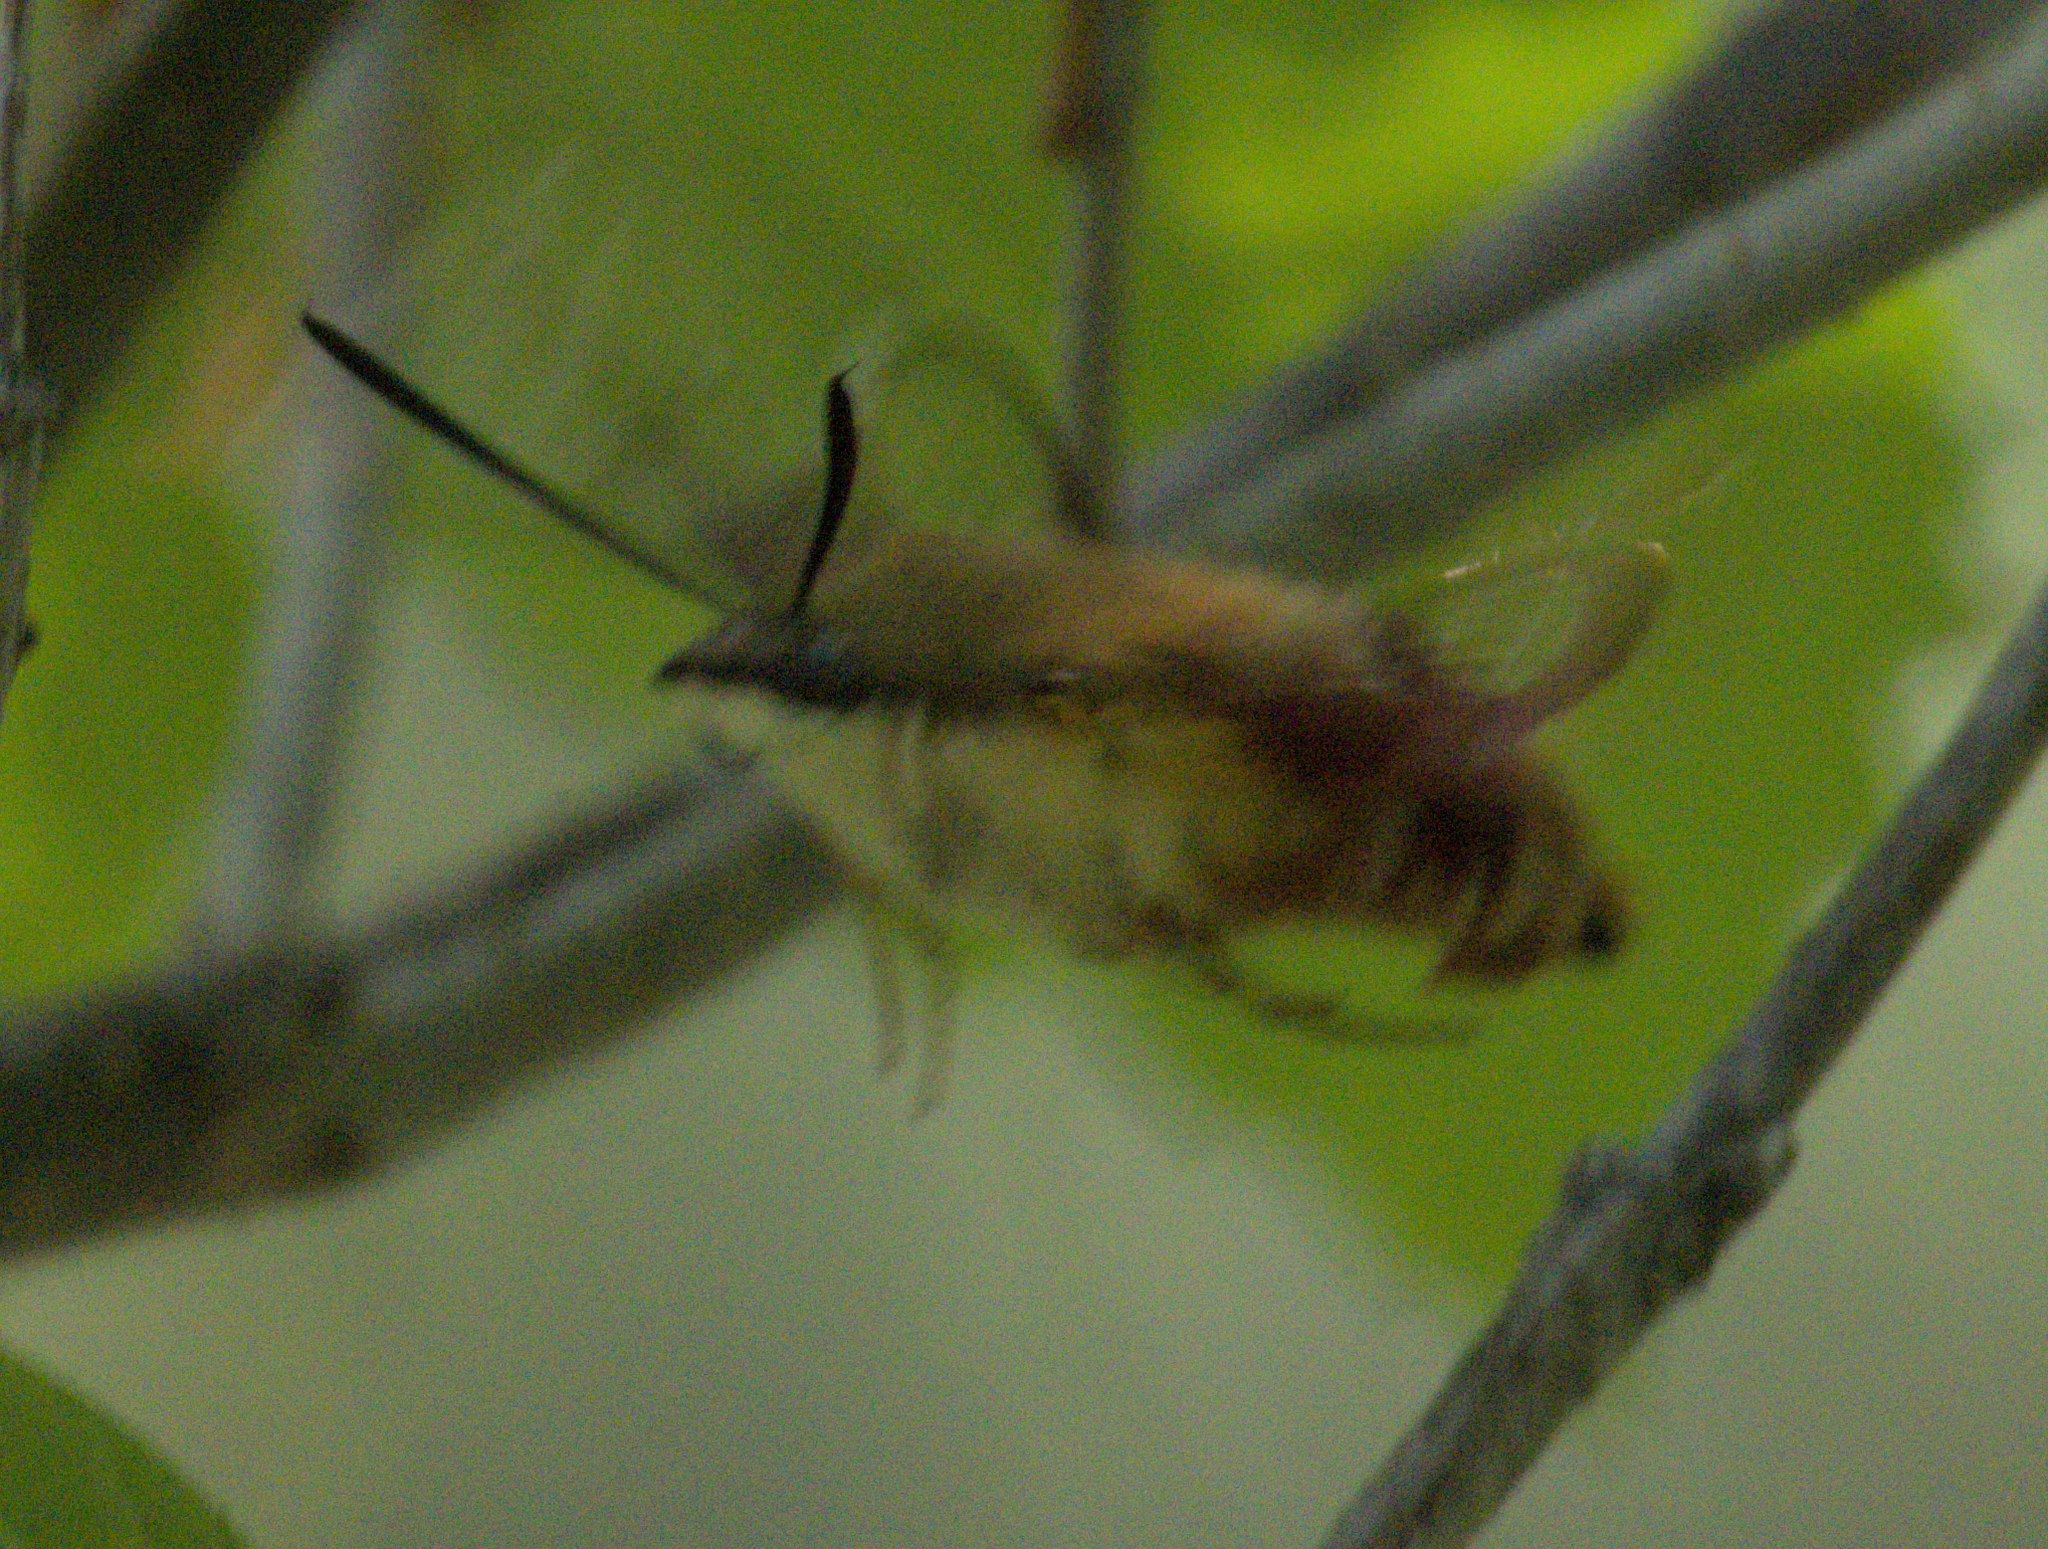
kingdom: Animalia
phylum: Arthropoda
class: Insecta
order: Lepidoptera
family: Sphingidae
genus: Hemaris
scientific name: Hemaris thysbe
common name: Common clear-wing
